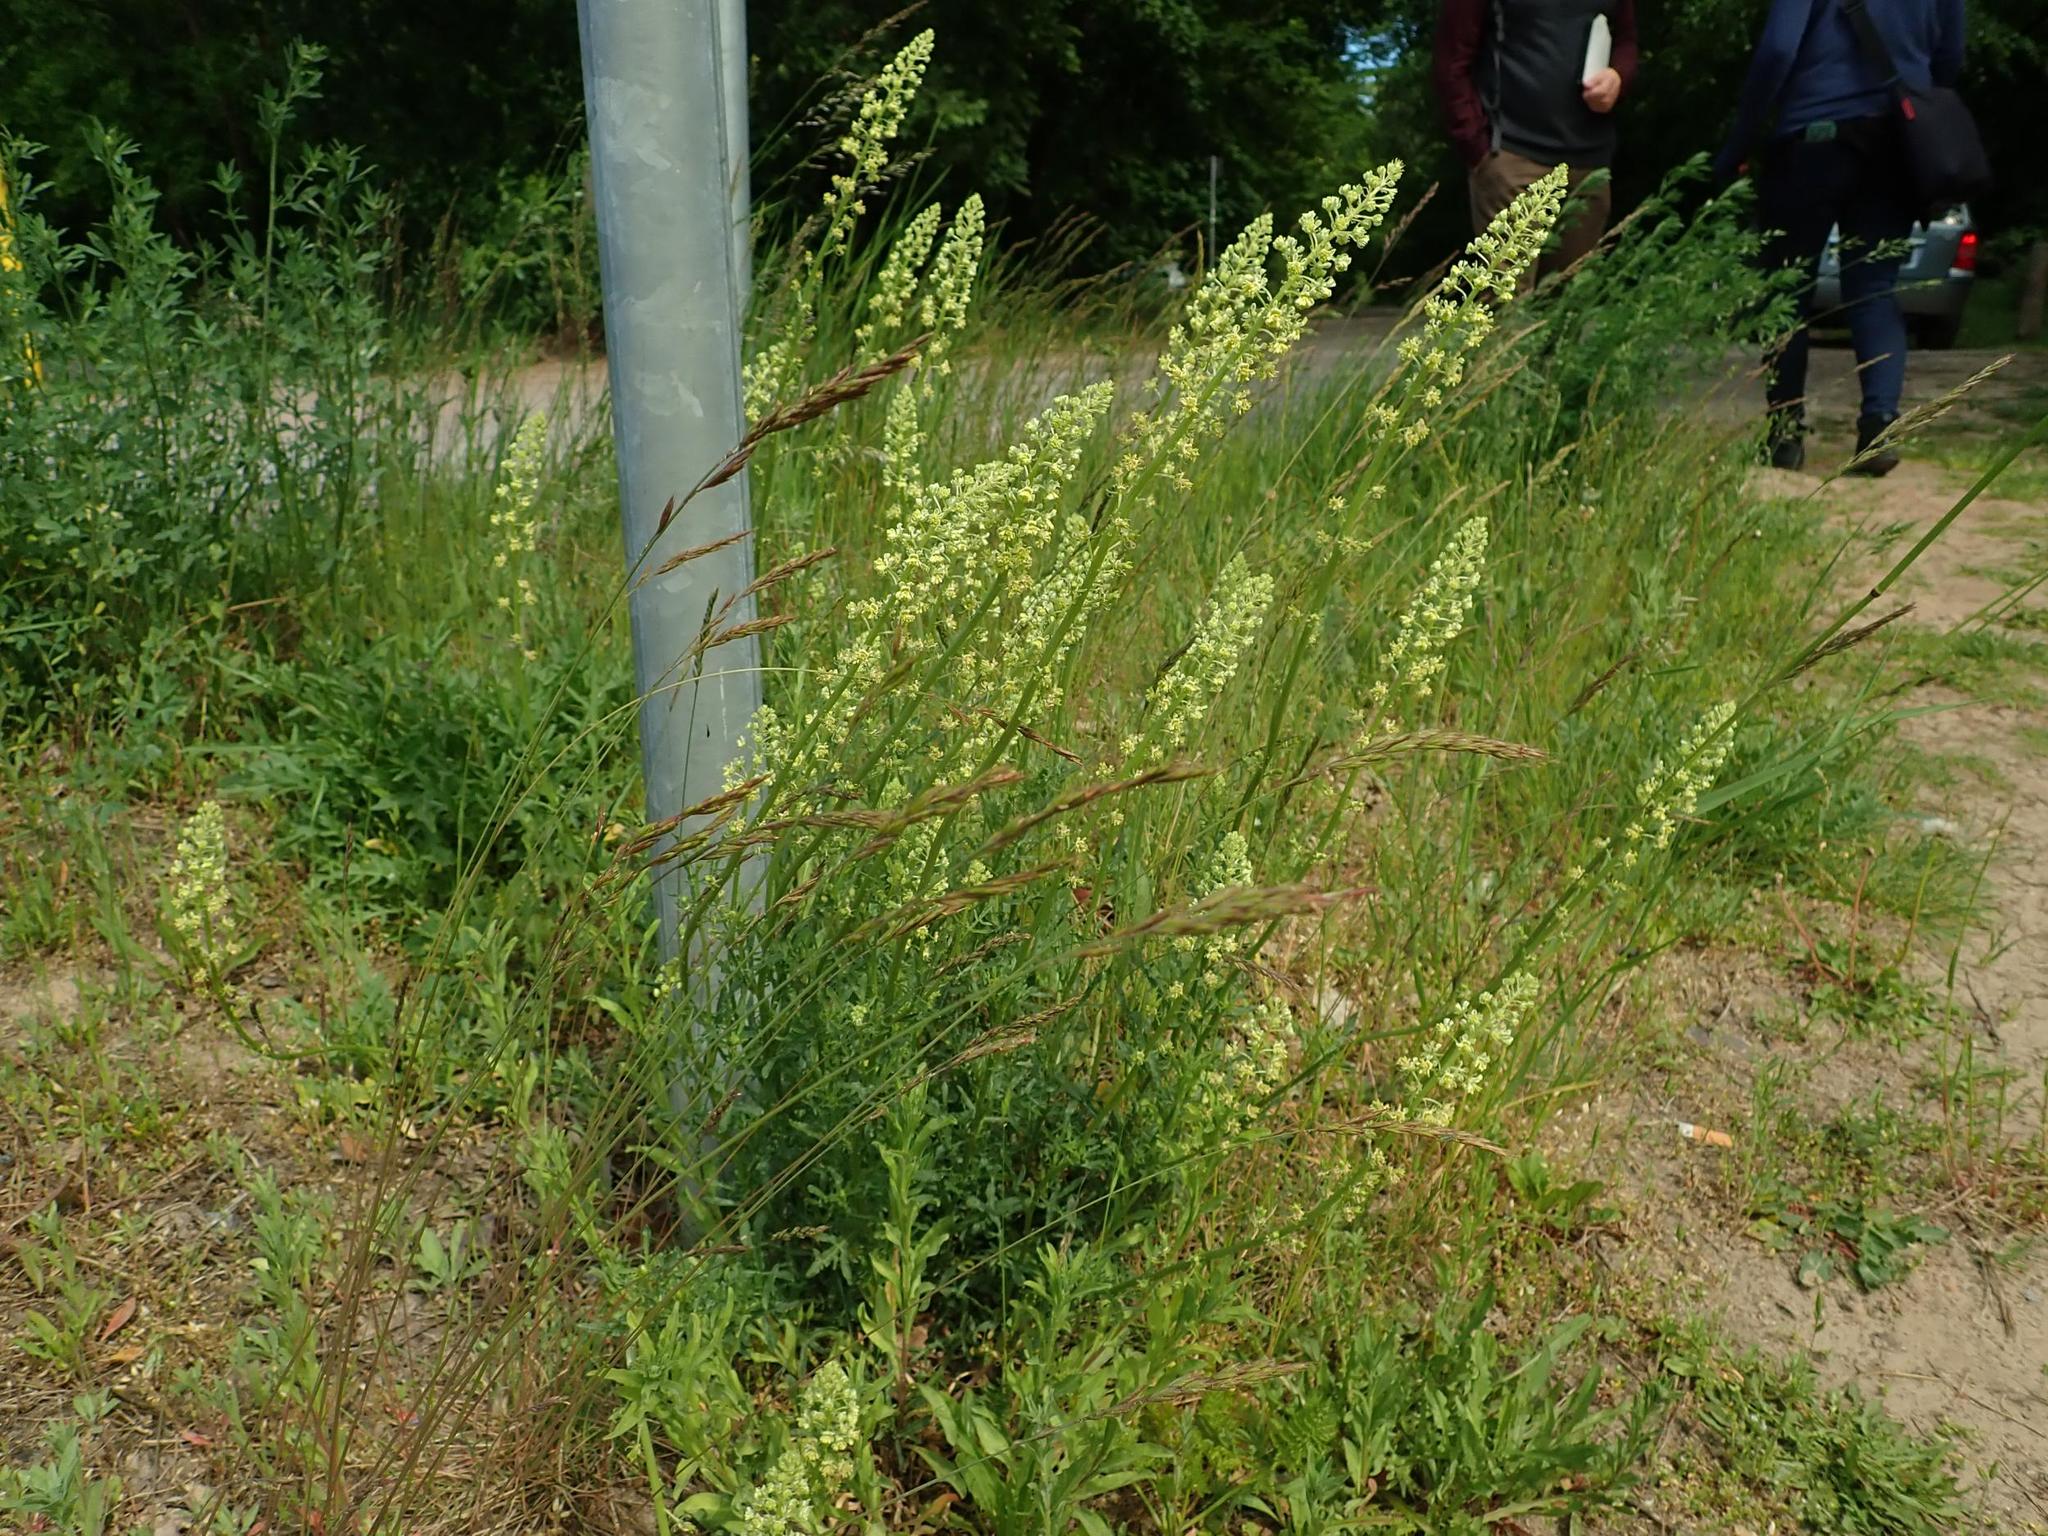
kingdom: Plantae
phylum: Tracheophyta
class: Magnoliopsida
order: Brassicales
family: Resedaceae
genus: Reseda
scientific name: Reseda lutea
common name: Wild mignonette
